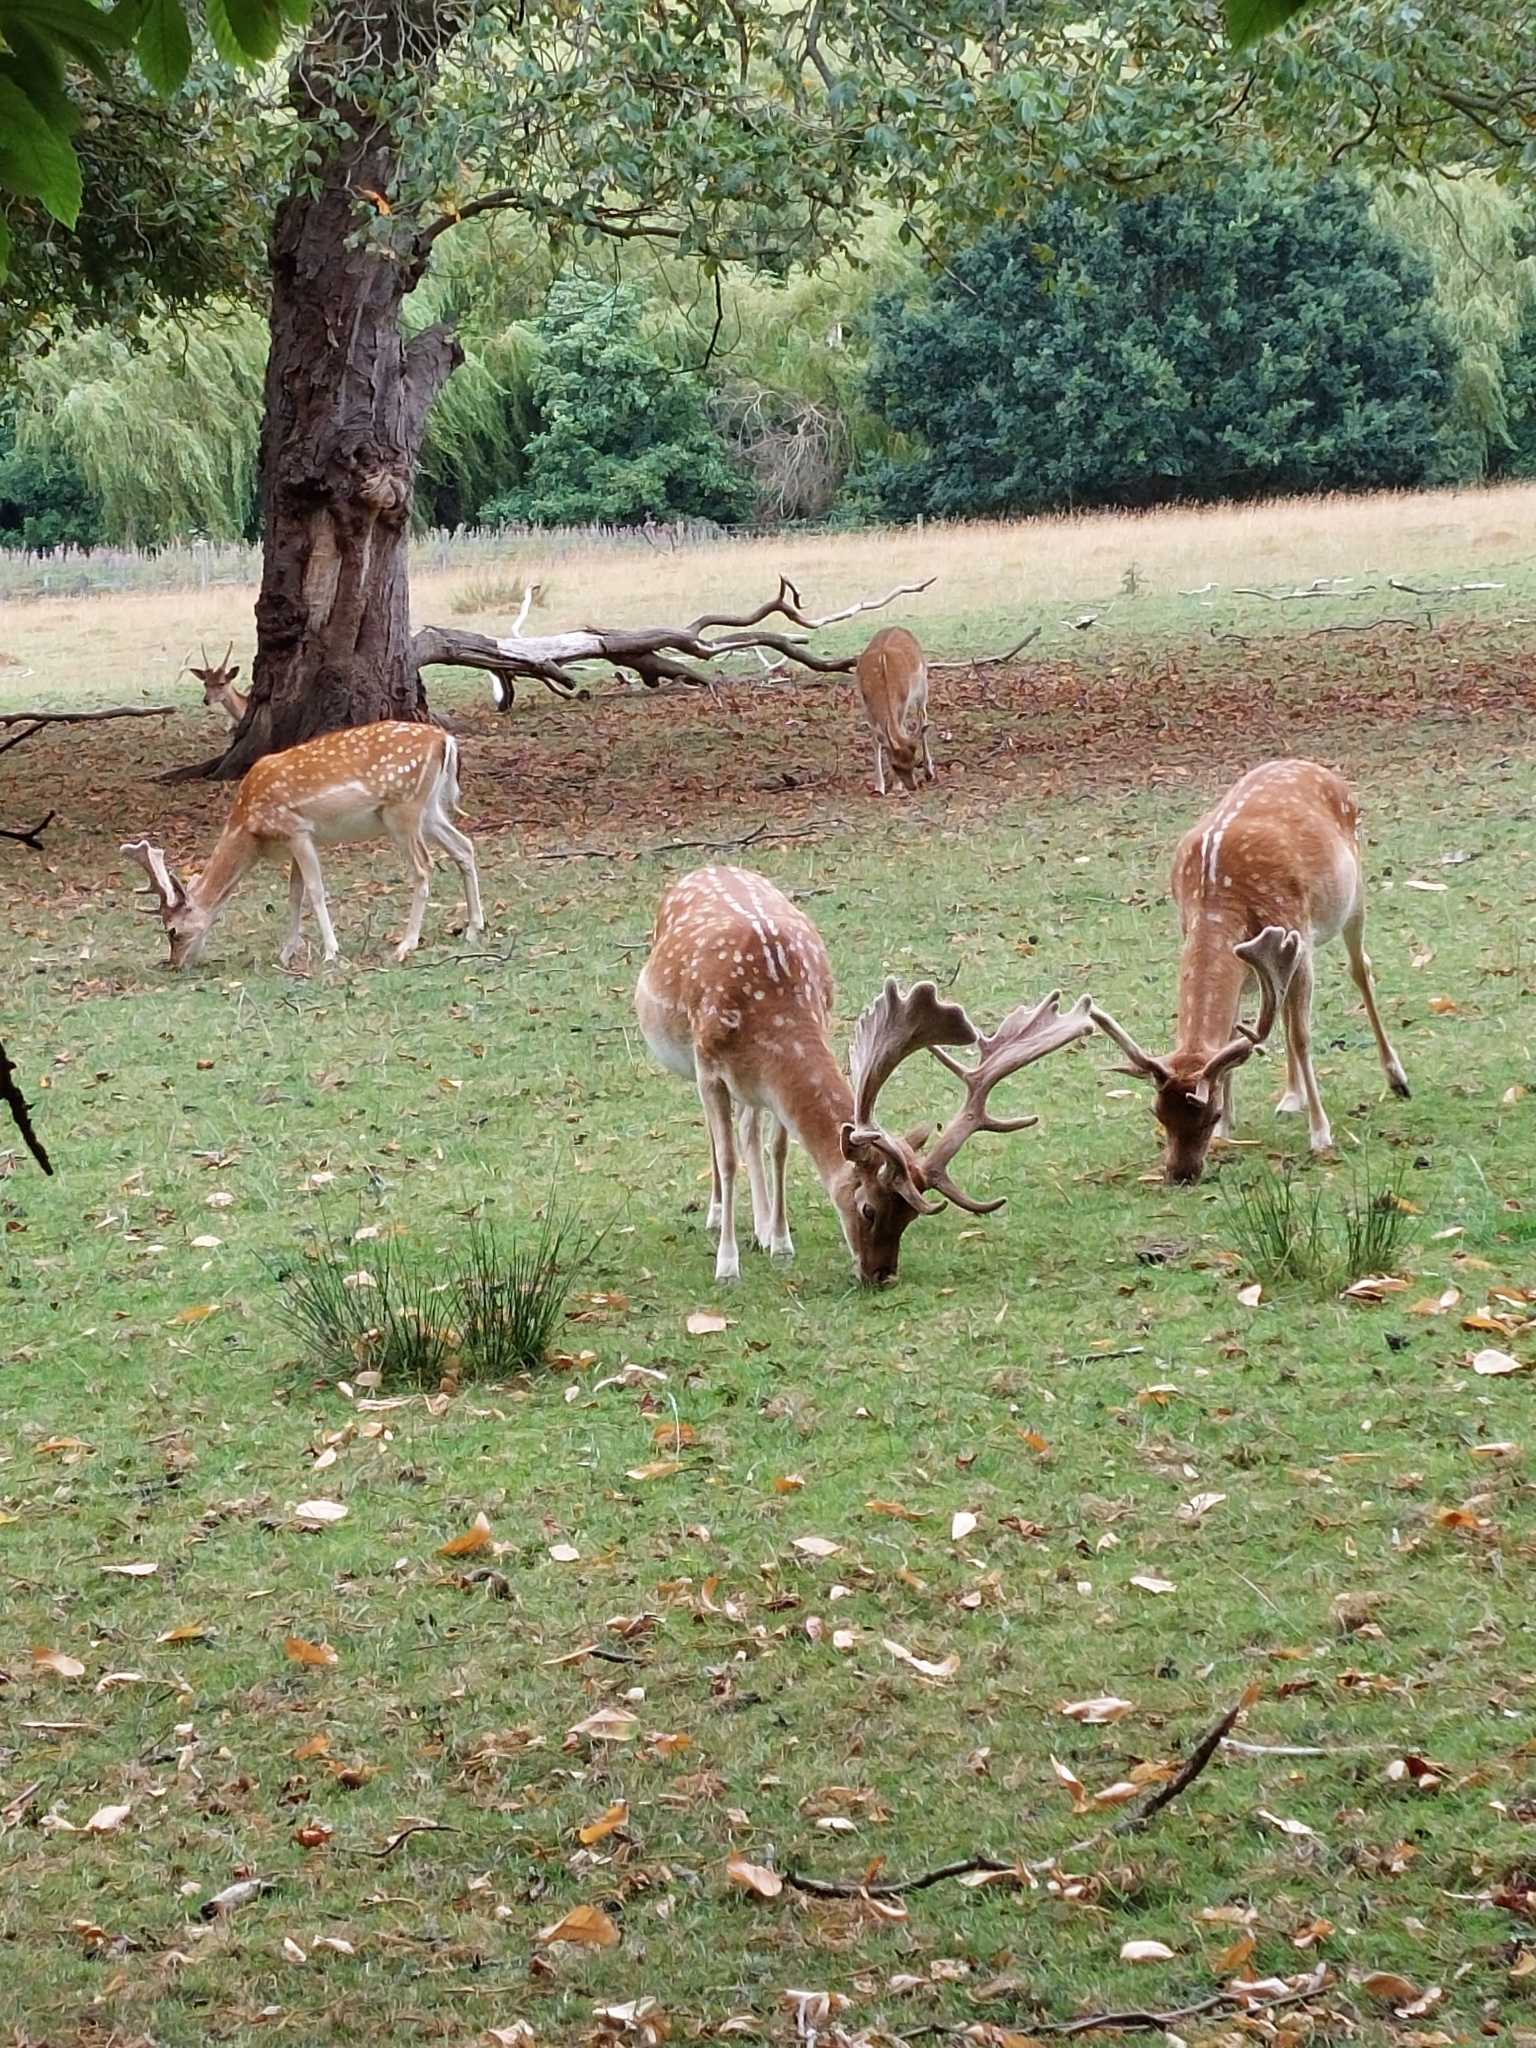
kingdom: Animalia
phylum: Chordata
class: Mammalia
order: Artiodactyla
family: Cervidae
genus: Dama
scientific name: Dama dama
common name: Fallow deer
